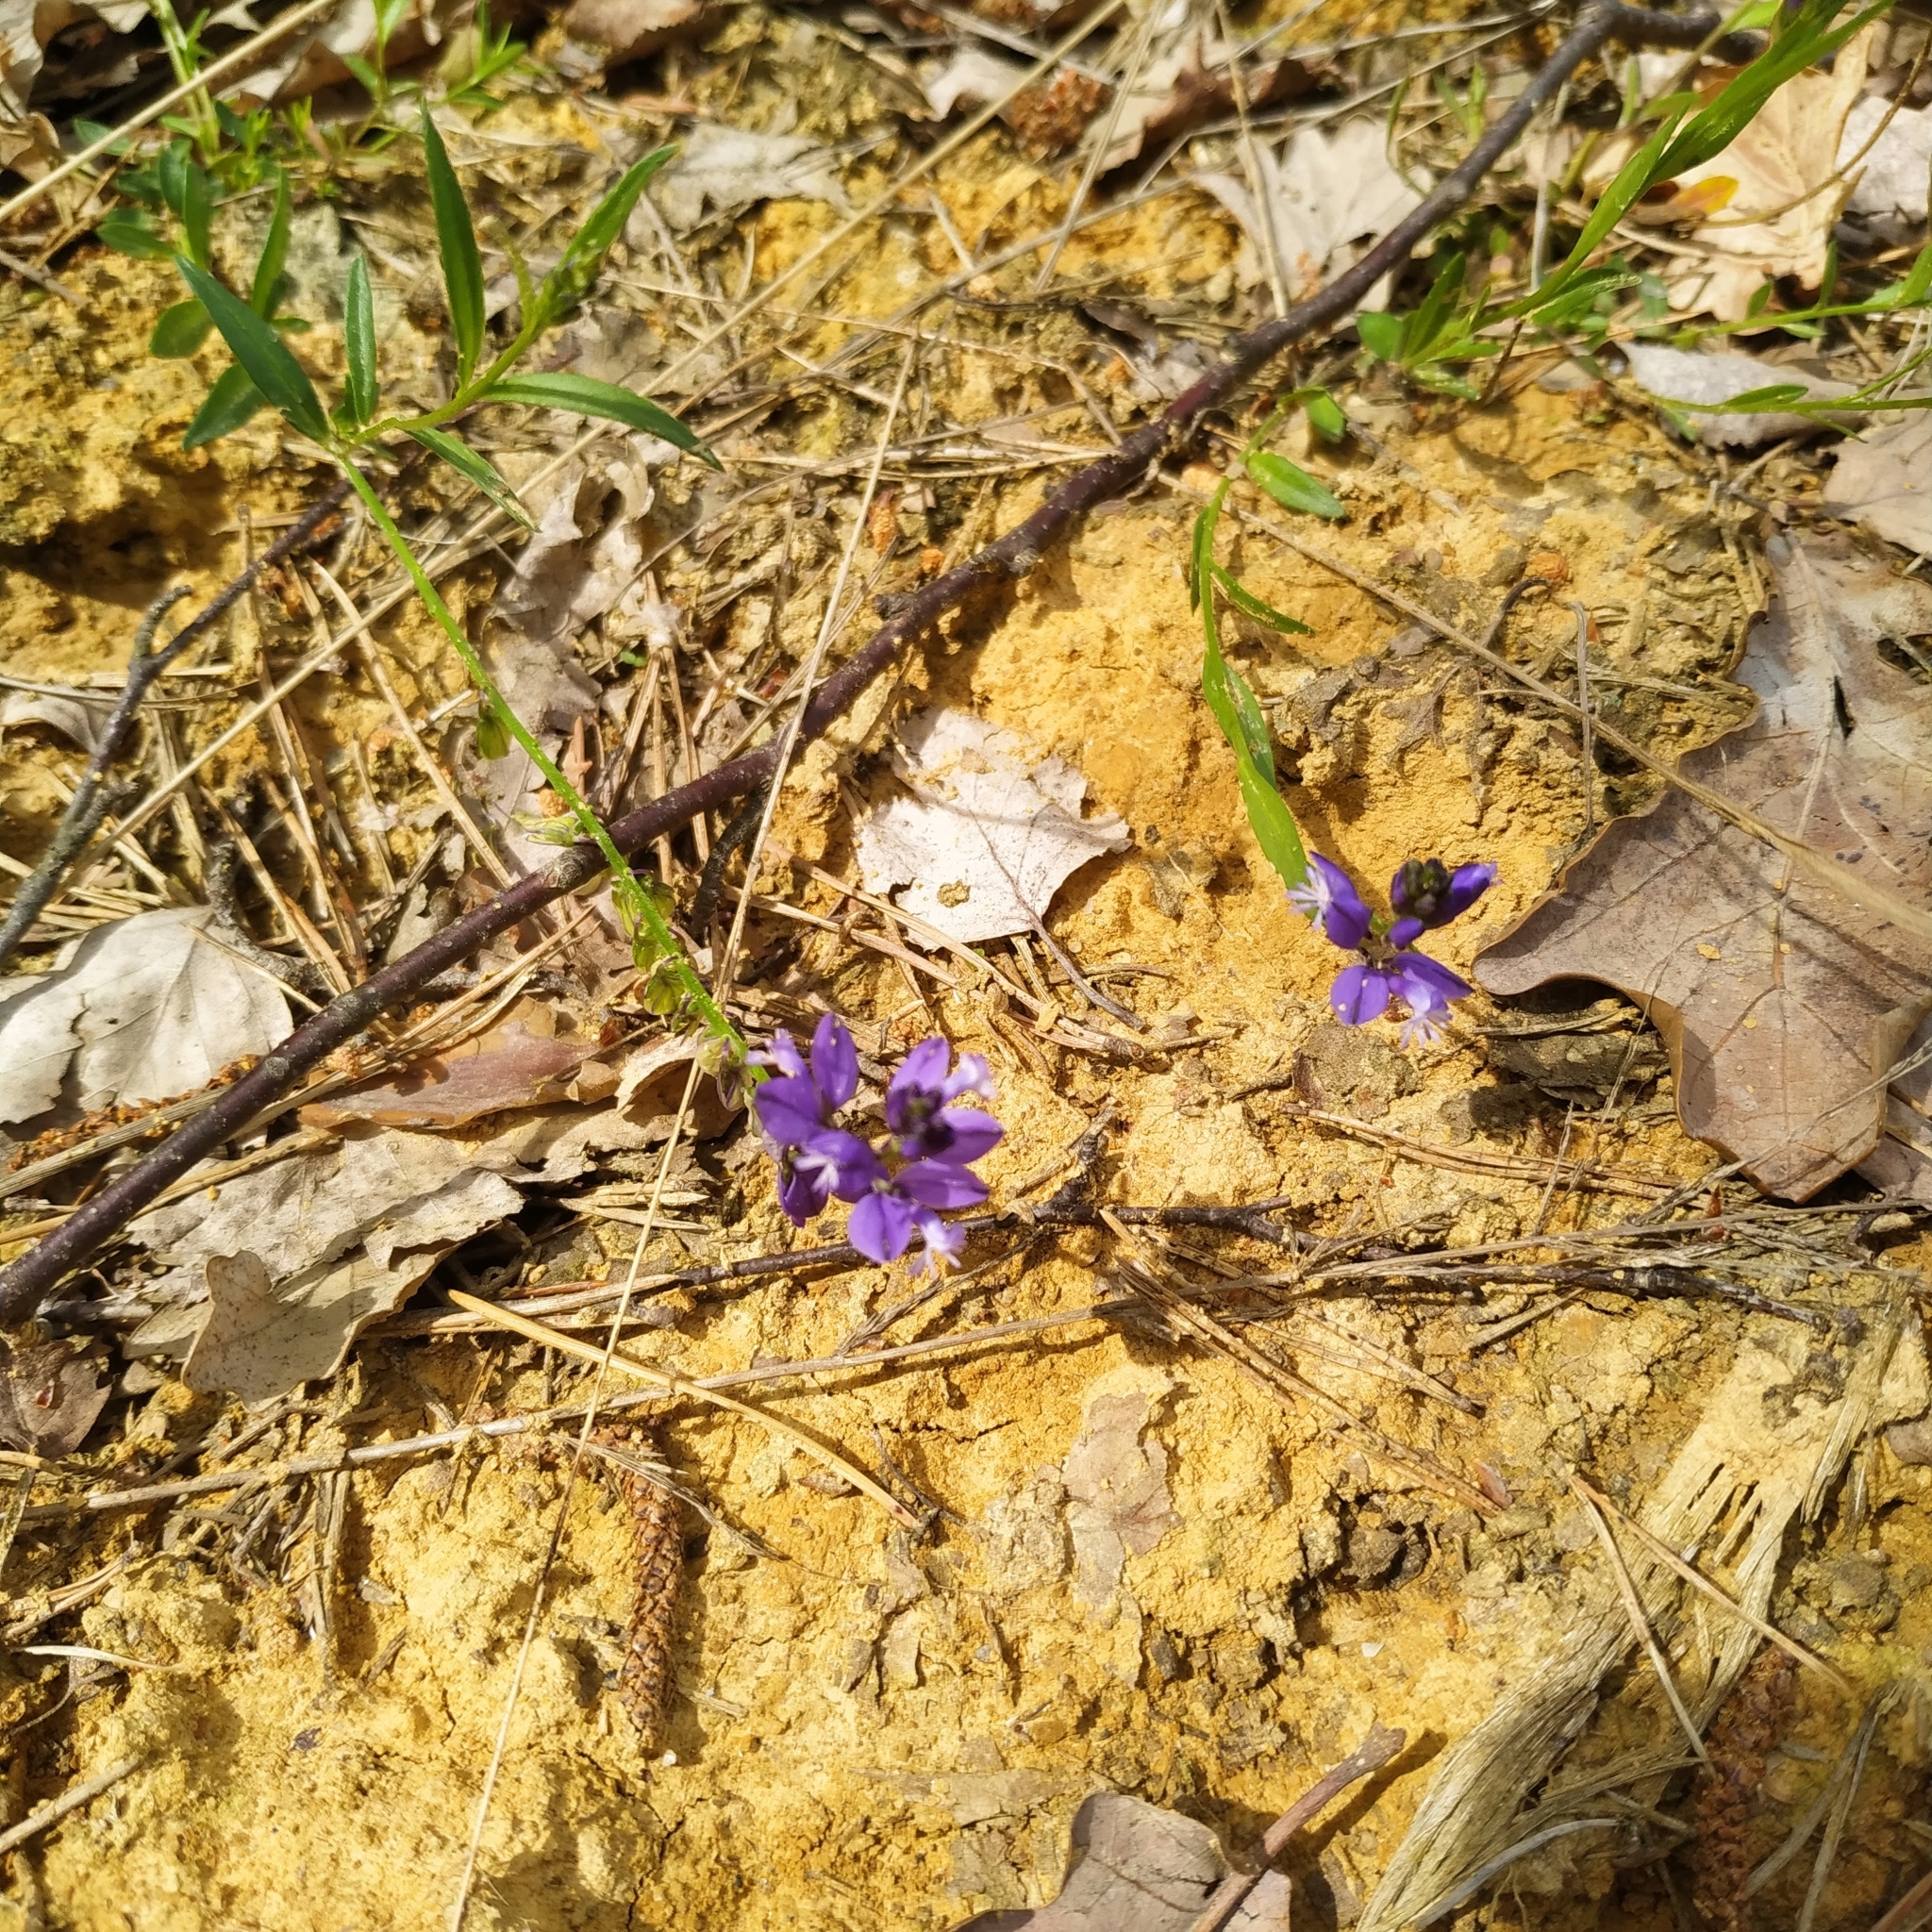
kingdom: Plantae
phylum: Tracheophyta
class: Magnoliopsida
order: Fabales
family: Polygalaceae
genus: Polygala
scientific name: Polygala serpyllifolia
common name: Heath milkwort
